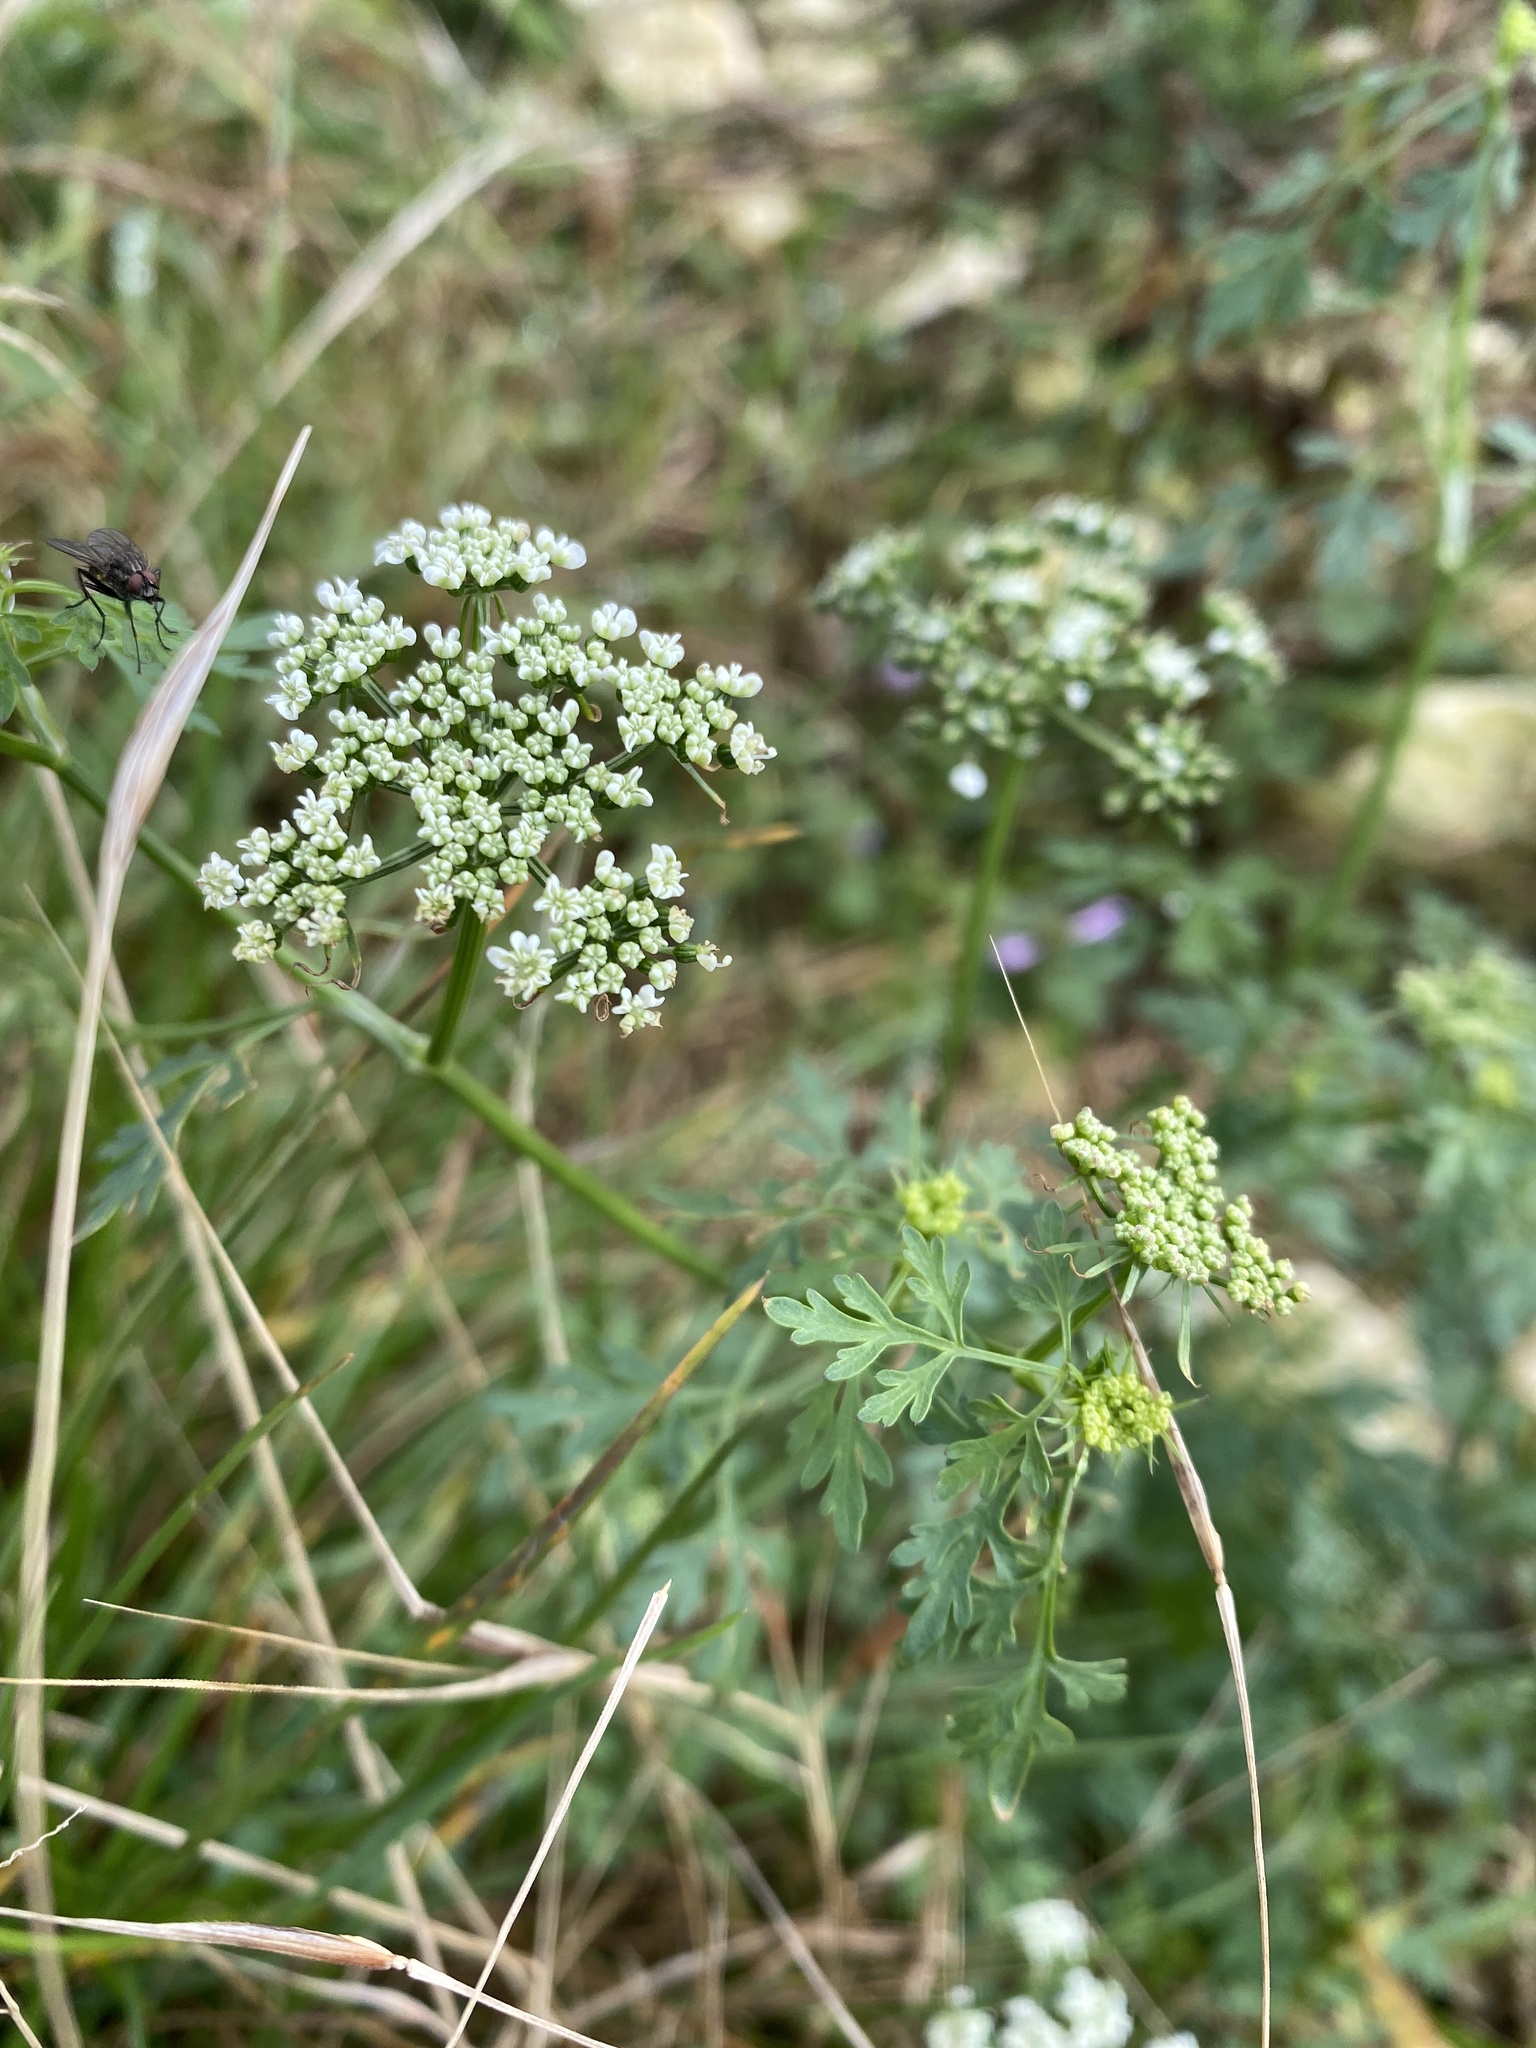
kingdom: Plantae
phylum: Tracheophyta
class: Magnoliopsida
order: Apiales
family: Apiaceae
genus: Aethusa
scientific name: Aethusa cynapium
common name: Fool's parsley
